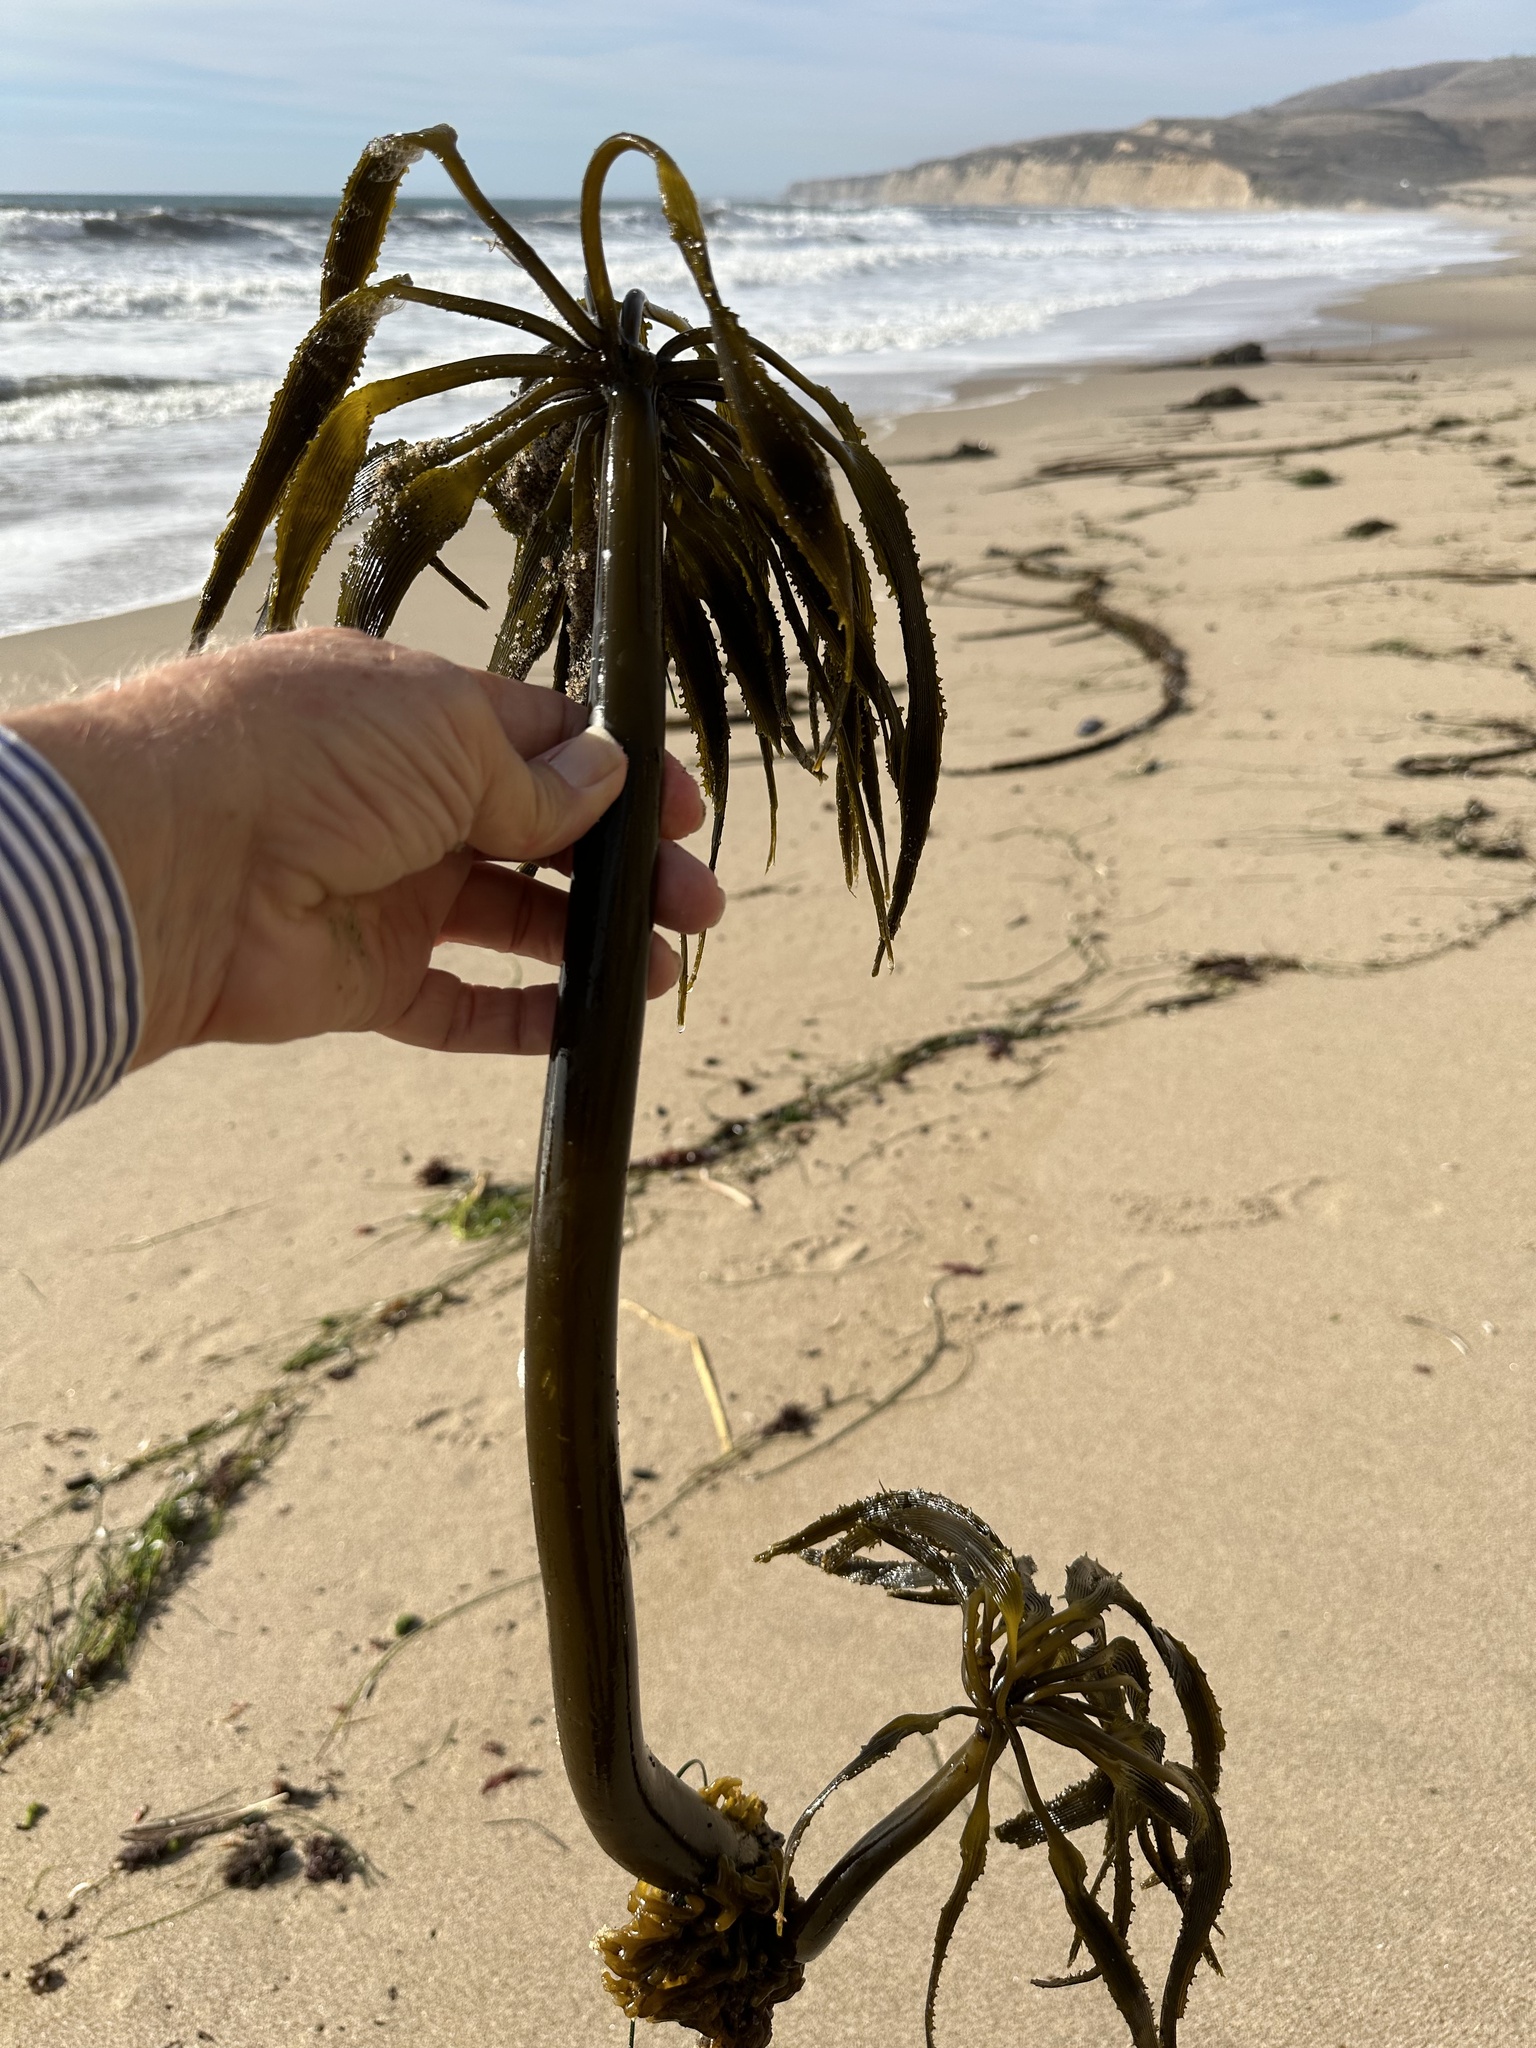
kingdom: Chromista
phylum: Ochrophyta
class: Phaeophyceae
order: Laminariales
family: Laminariaceae
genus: Postelsia
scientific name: Postelsia palmiformis
